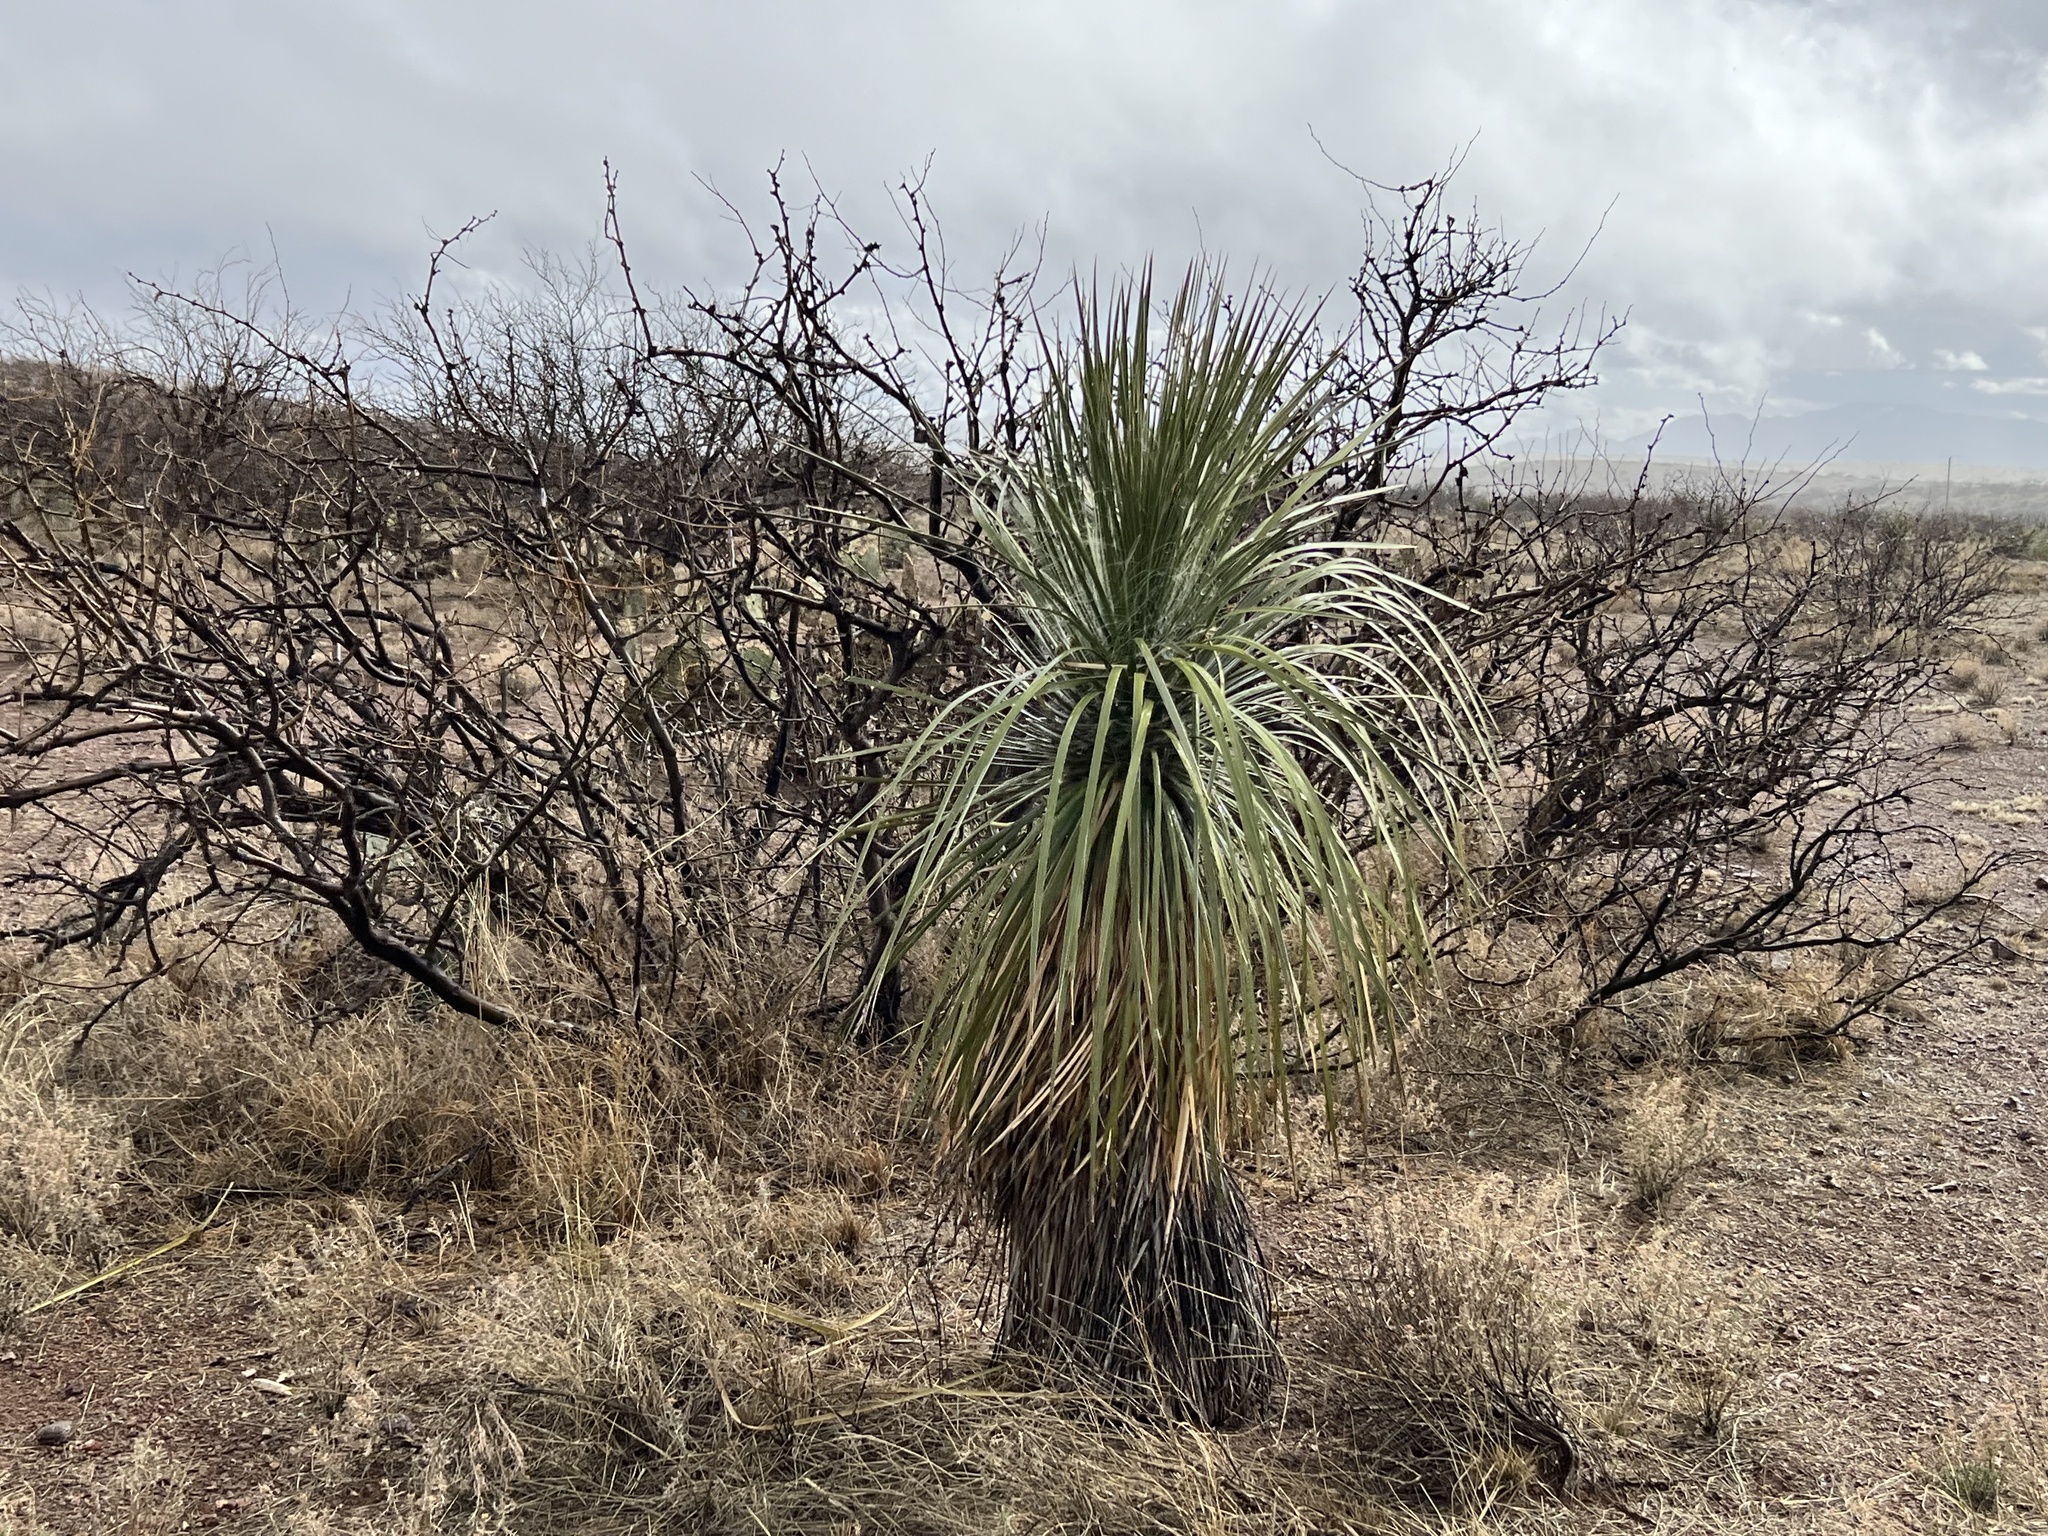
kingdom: Plantae
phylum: Tracheophyta
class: Liliopsida
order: Asparagales
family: Asparagaceae
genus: Yucca
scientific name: Yucca elata
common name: Palmella
